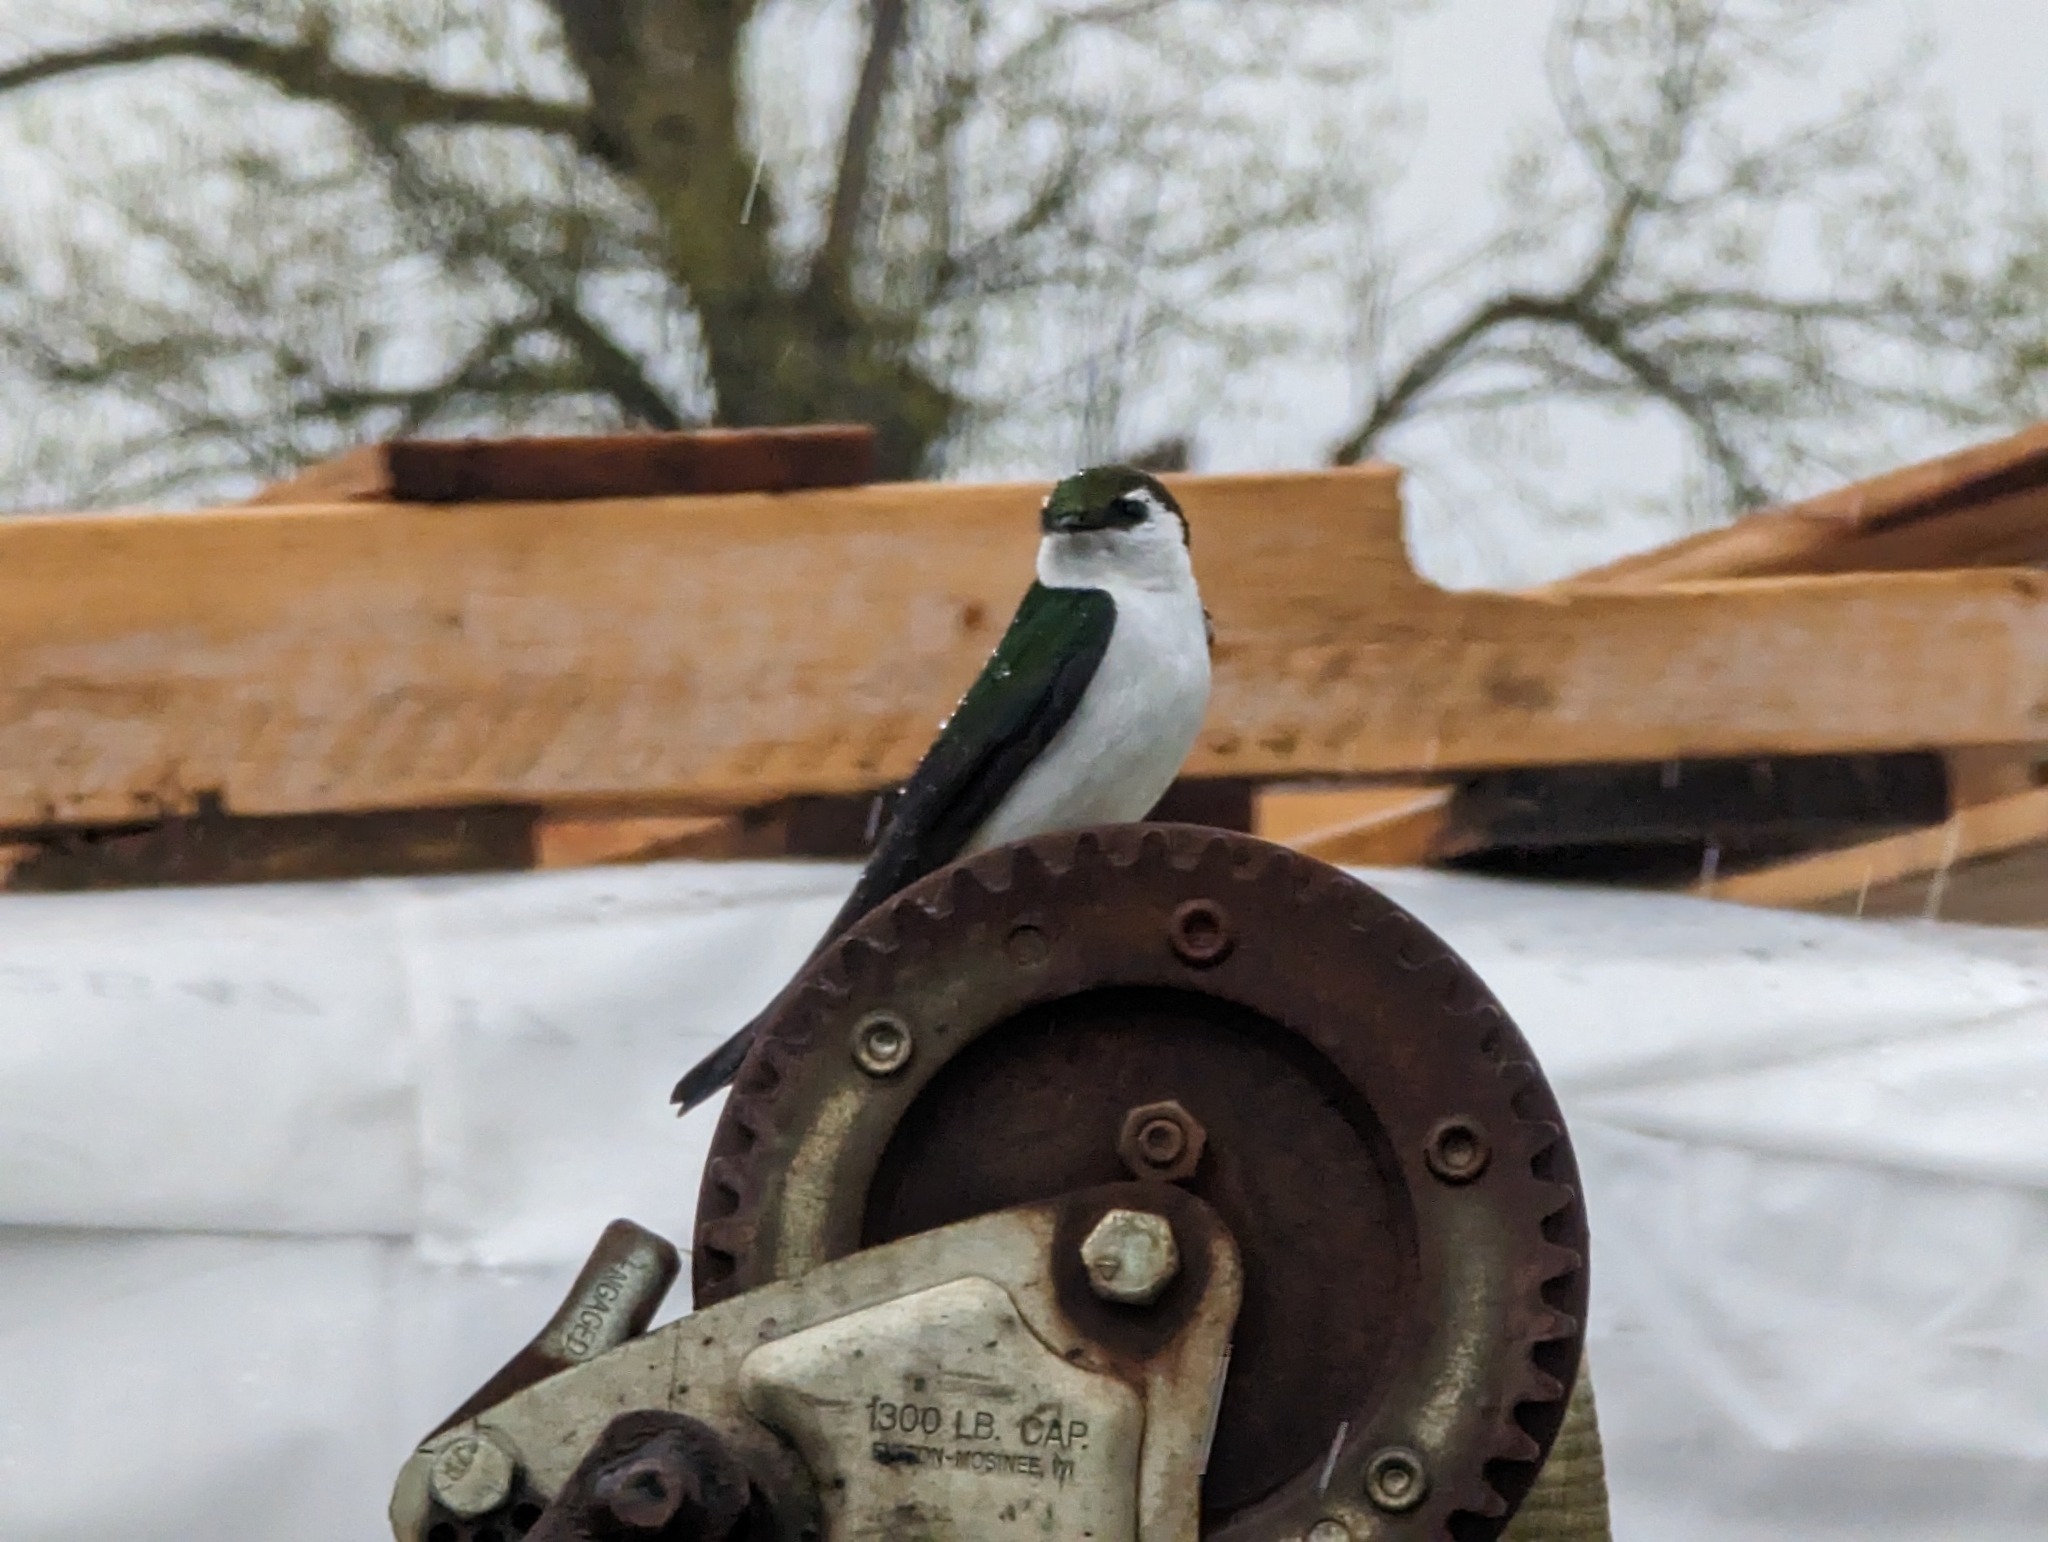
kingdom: Animalia
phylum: Chordata
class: Aves
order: Passeriformes
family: Hirundinidae
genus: Tachycineta
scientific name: Tachycineta thalassina
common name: Violet-green swallow
